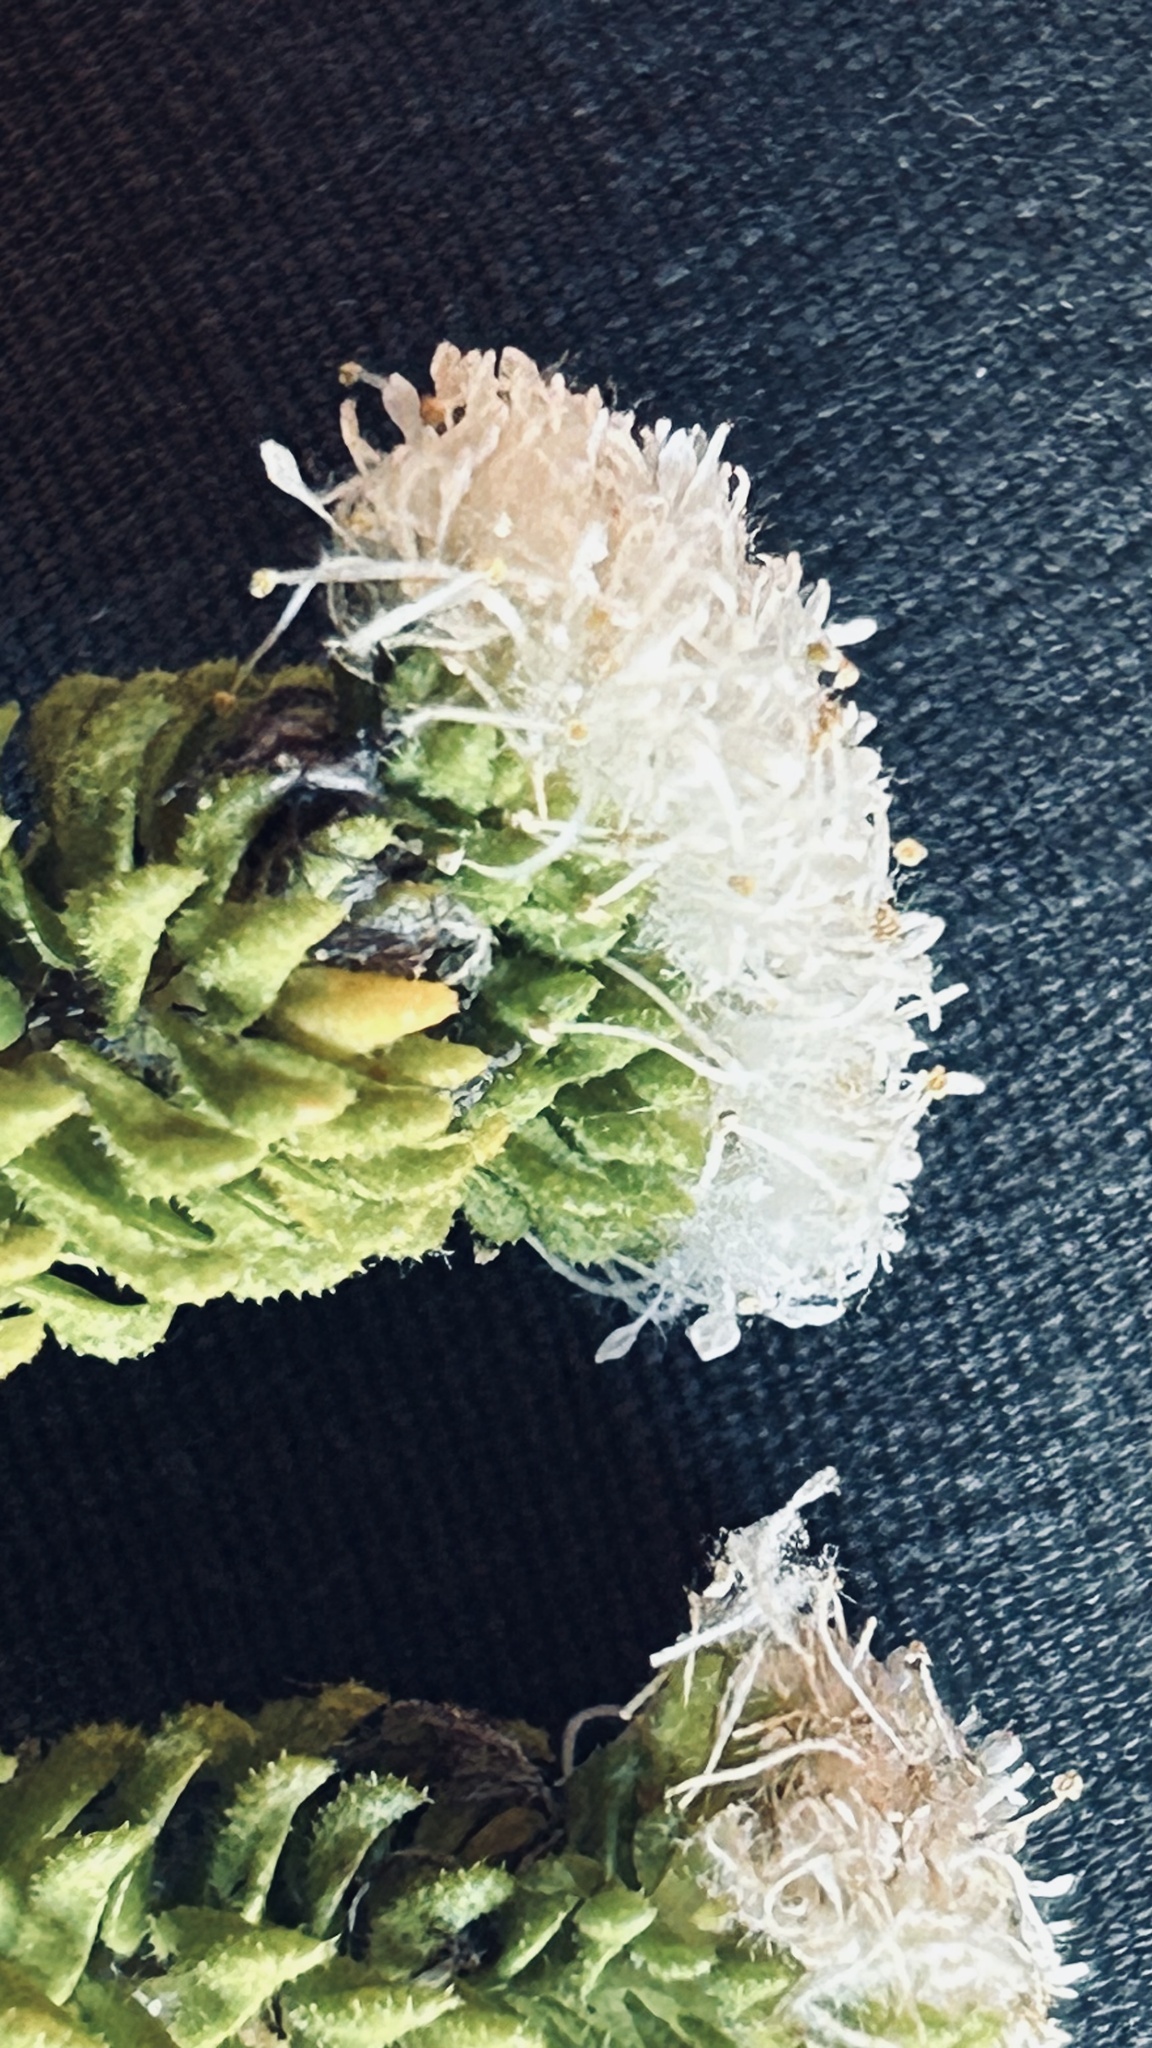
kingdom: Plantae
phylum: Tracheophyta
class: Magnoliopsida
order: Sapindales
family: Rutaceae
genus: Agathosma
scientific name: Agathosma eriantha
